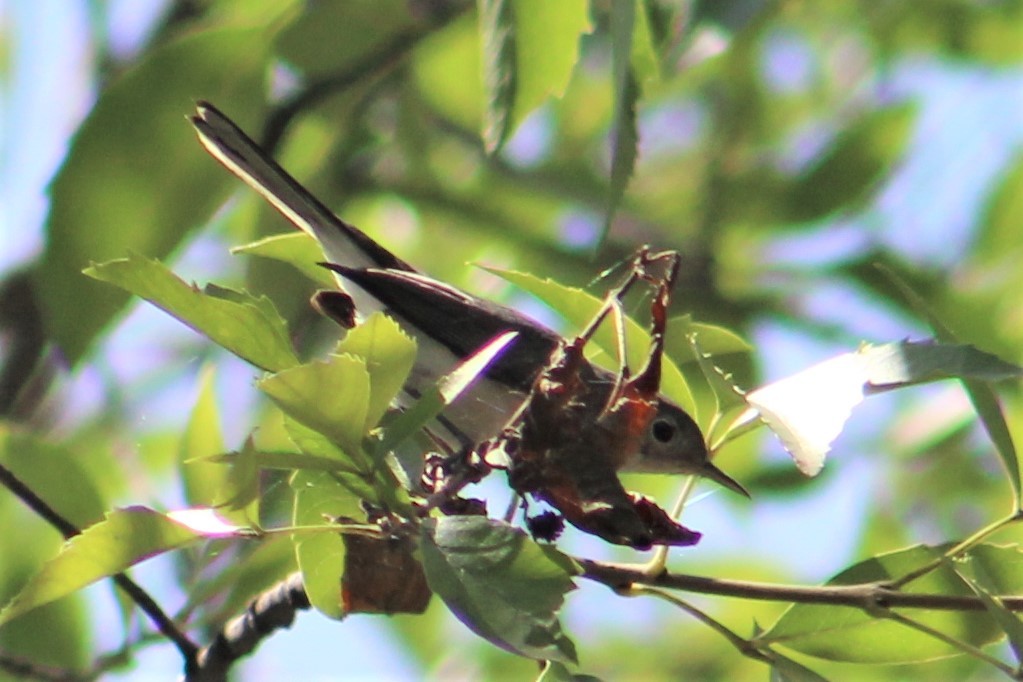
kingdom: Animalia
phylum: Chordata
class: Aves
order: Passeriformes
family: Polioptilidae
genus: Polioptila
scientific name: Polioptila caerulea
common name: Blue-gray gnatcatcher
